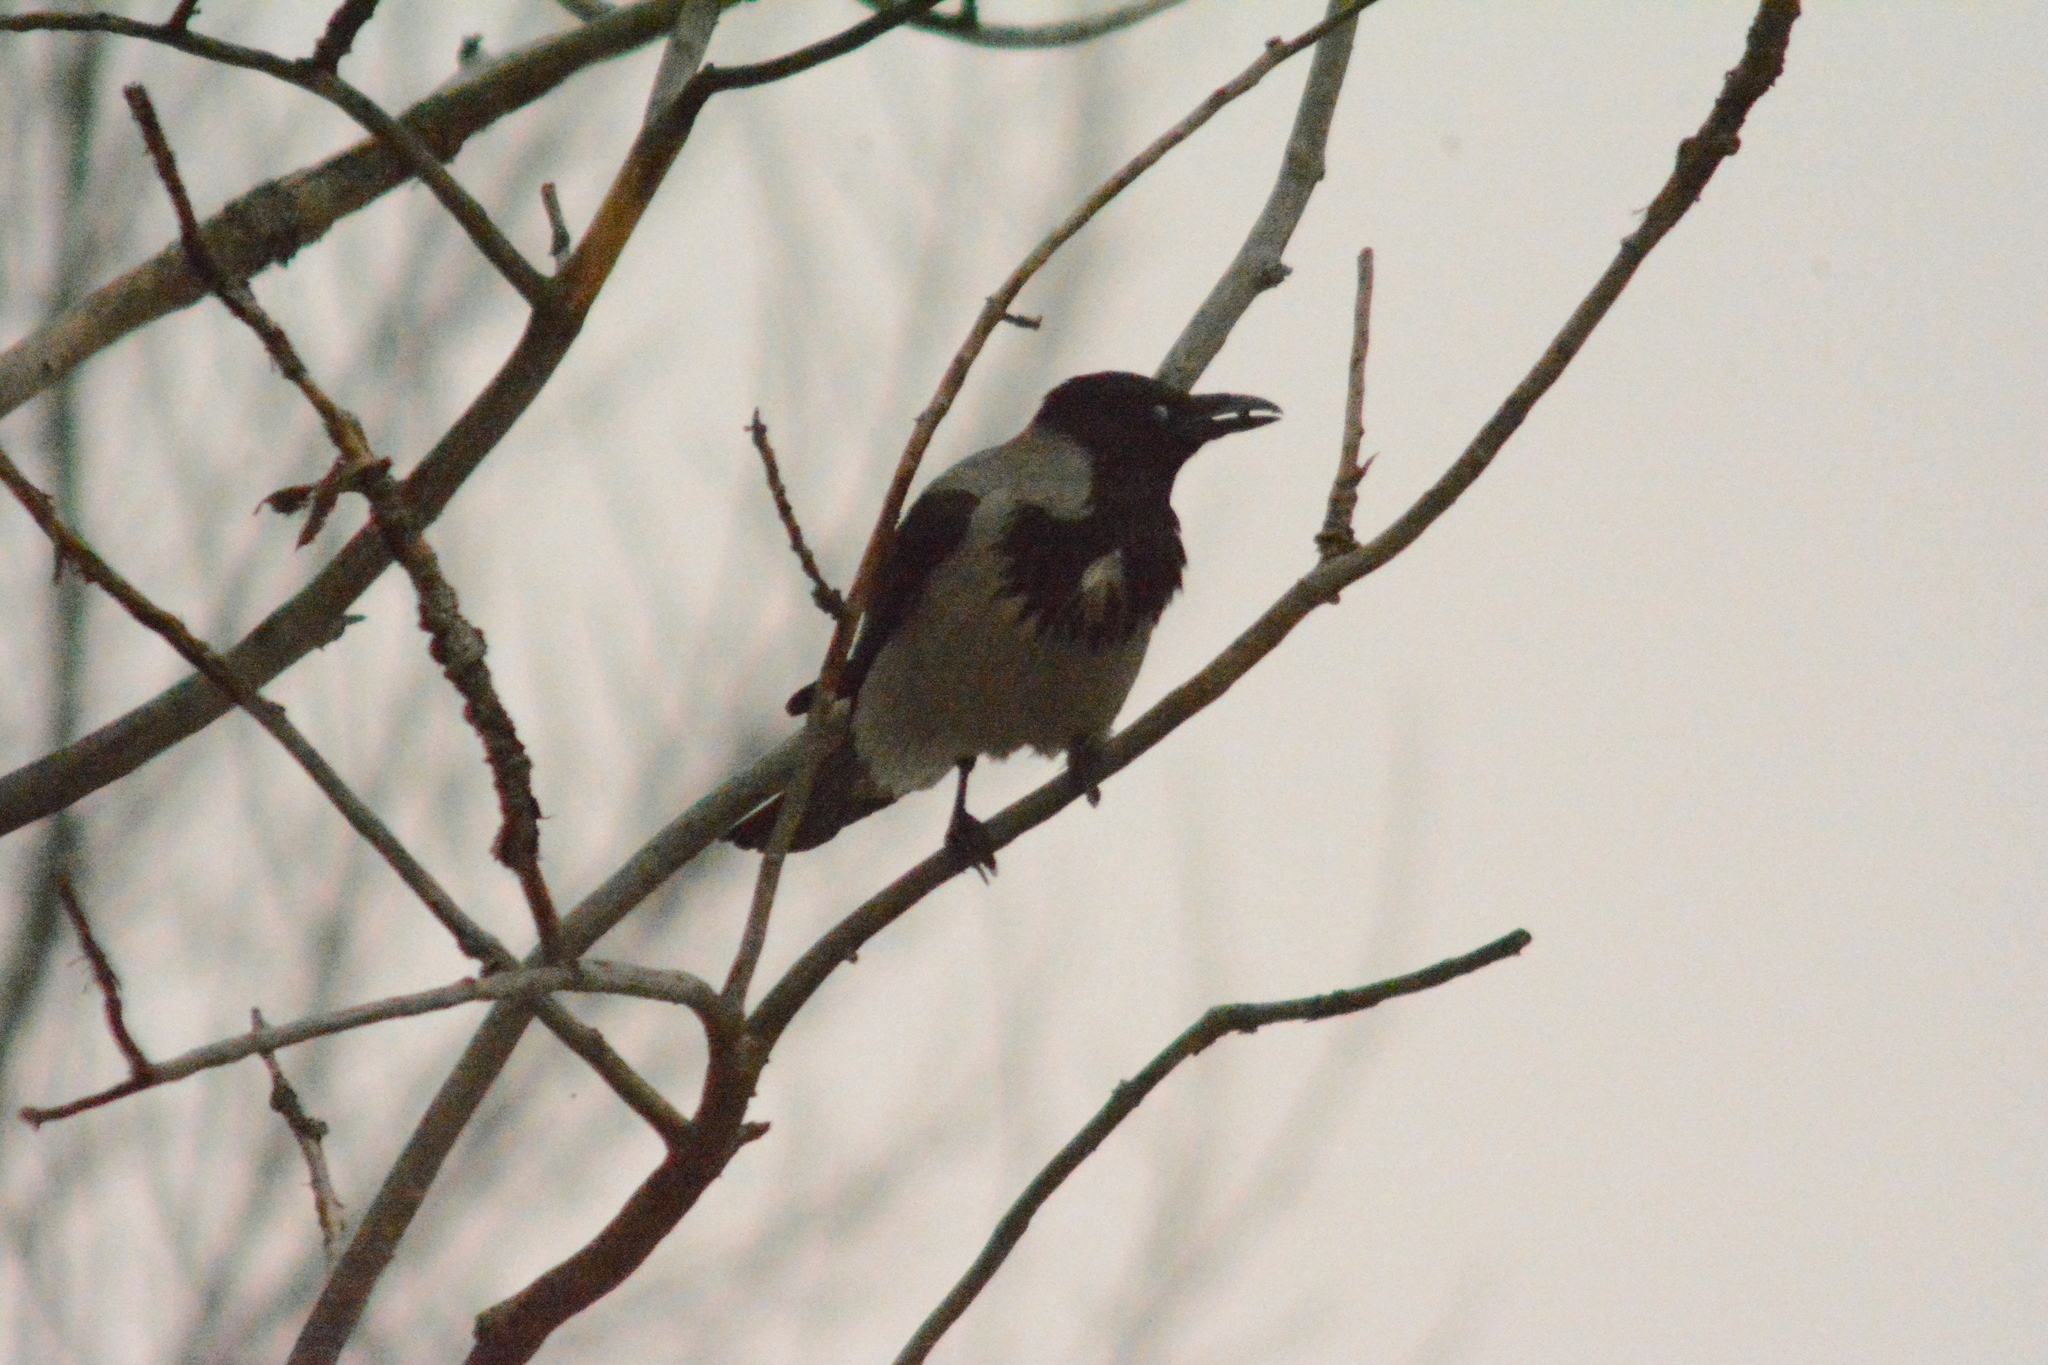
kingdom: Animalia
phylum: Chordata
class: Aves
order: Passeriformes
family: Corvidae
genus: Corvus
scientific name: Corvus cornix
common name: Hooded crow
